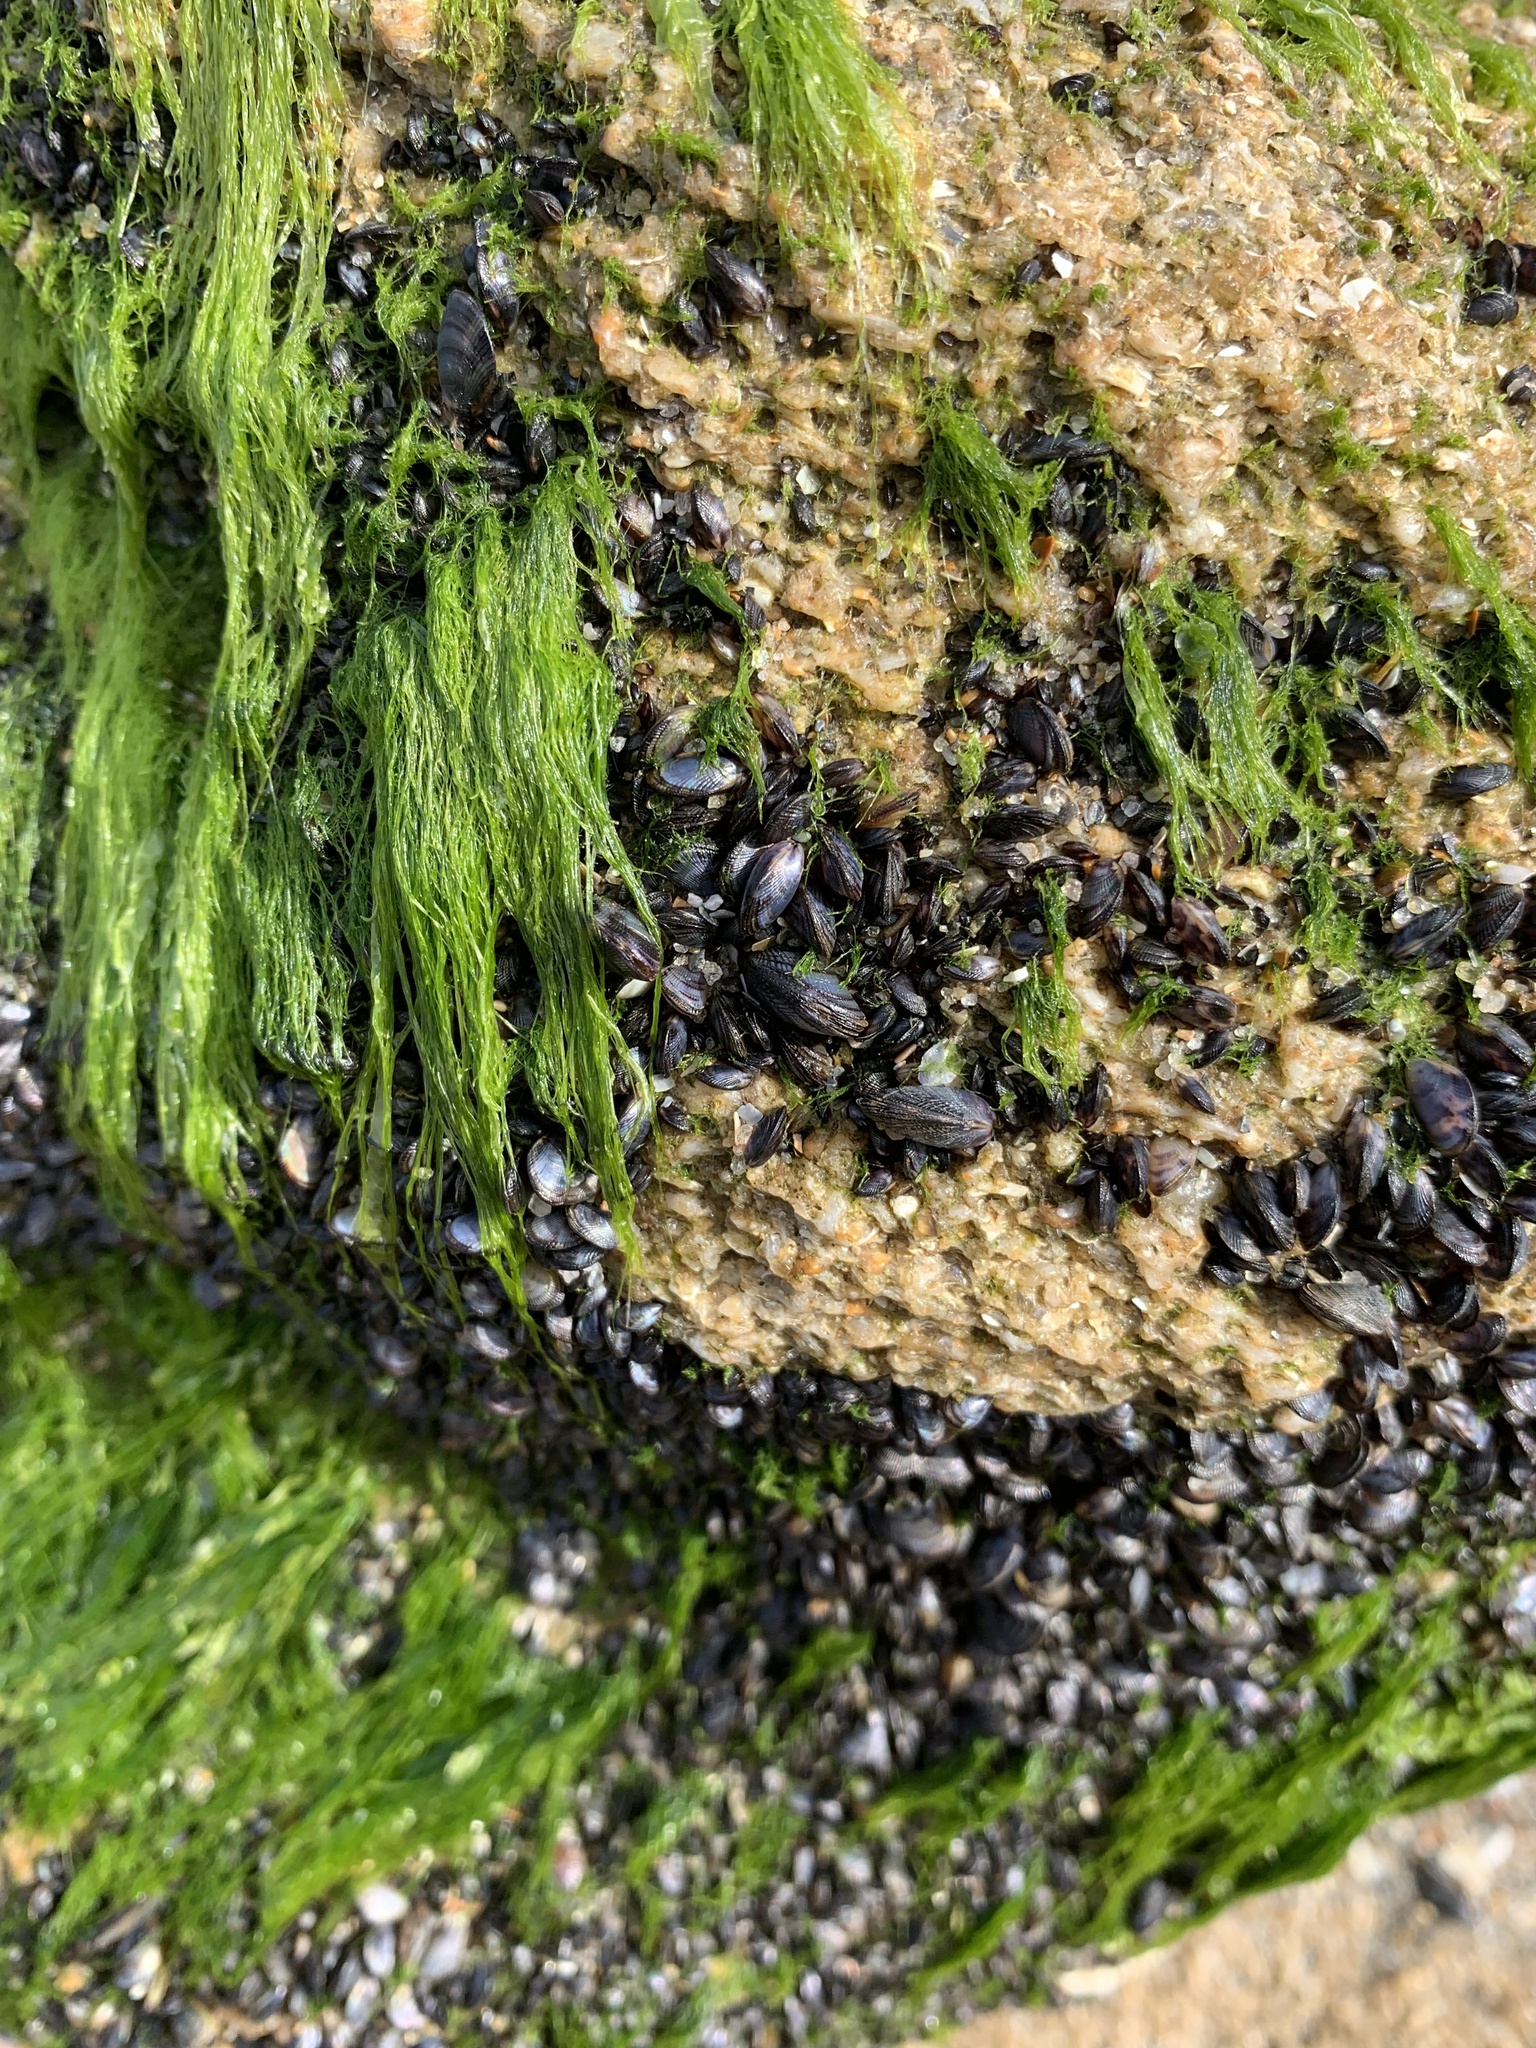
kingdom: Animalia
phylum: Mollusca
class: Bivalvia
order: Mytilida
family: Mytilidae
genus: Brachidontes
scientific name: Brachidontes exustus
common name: Scorched mussel
